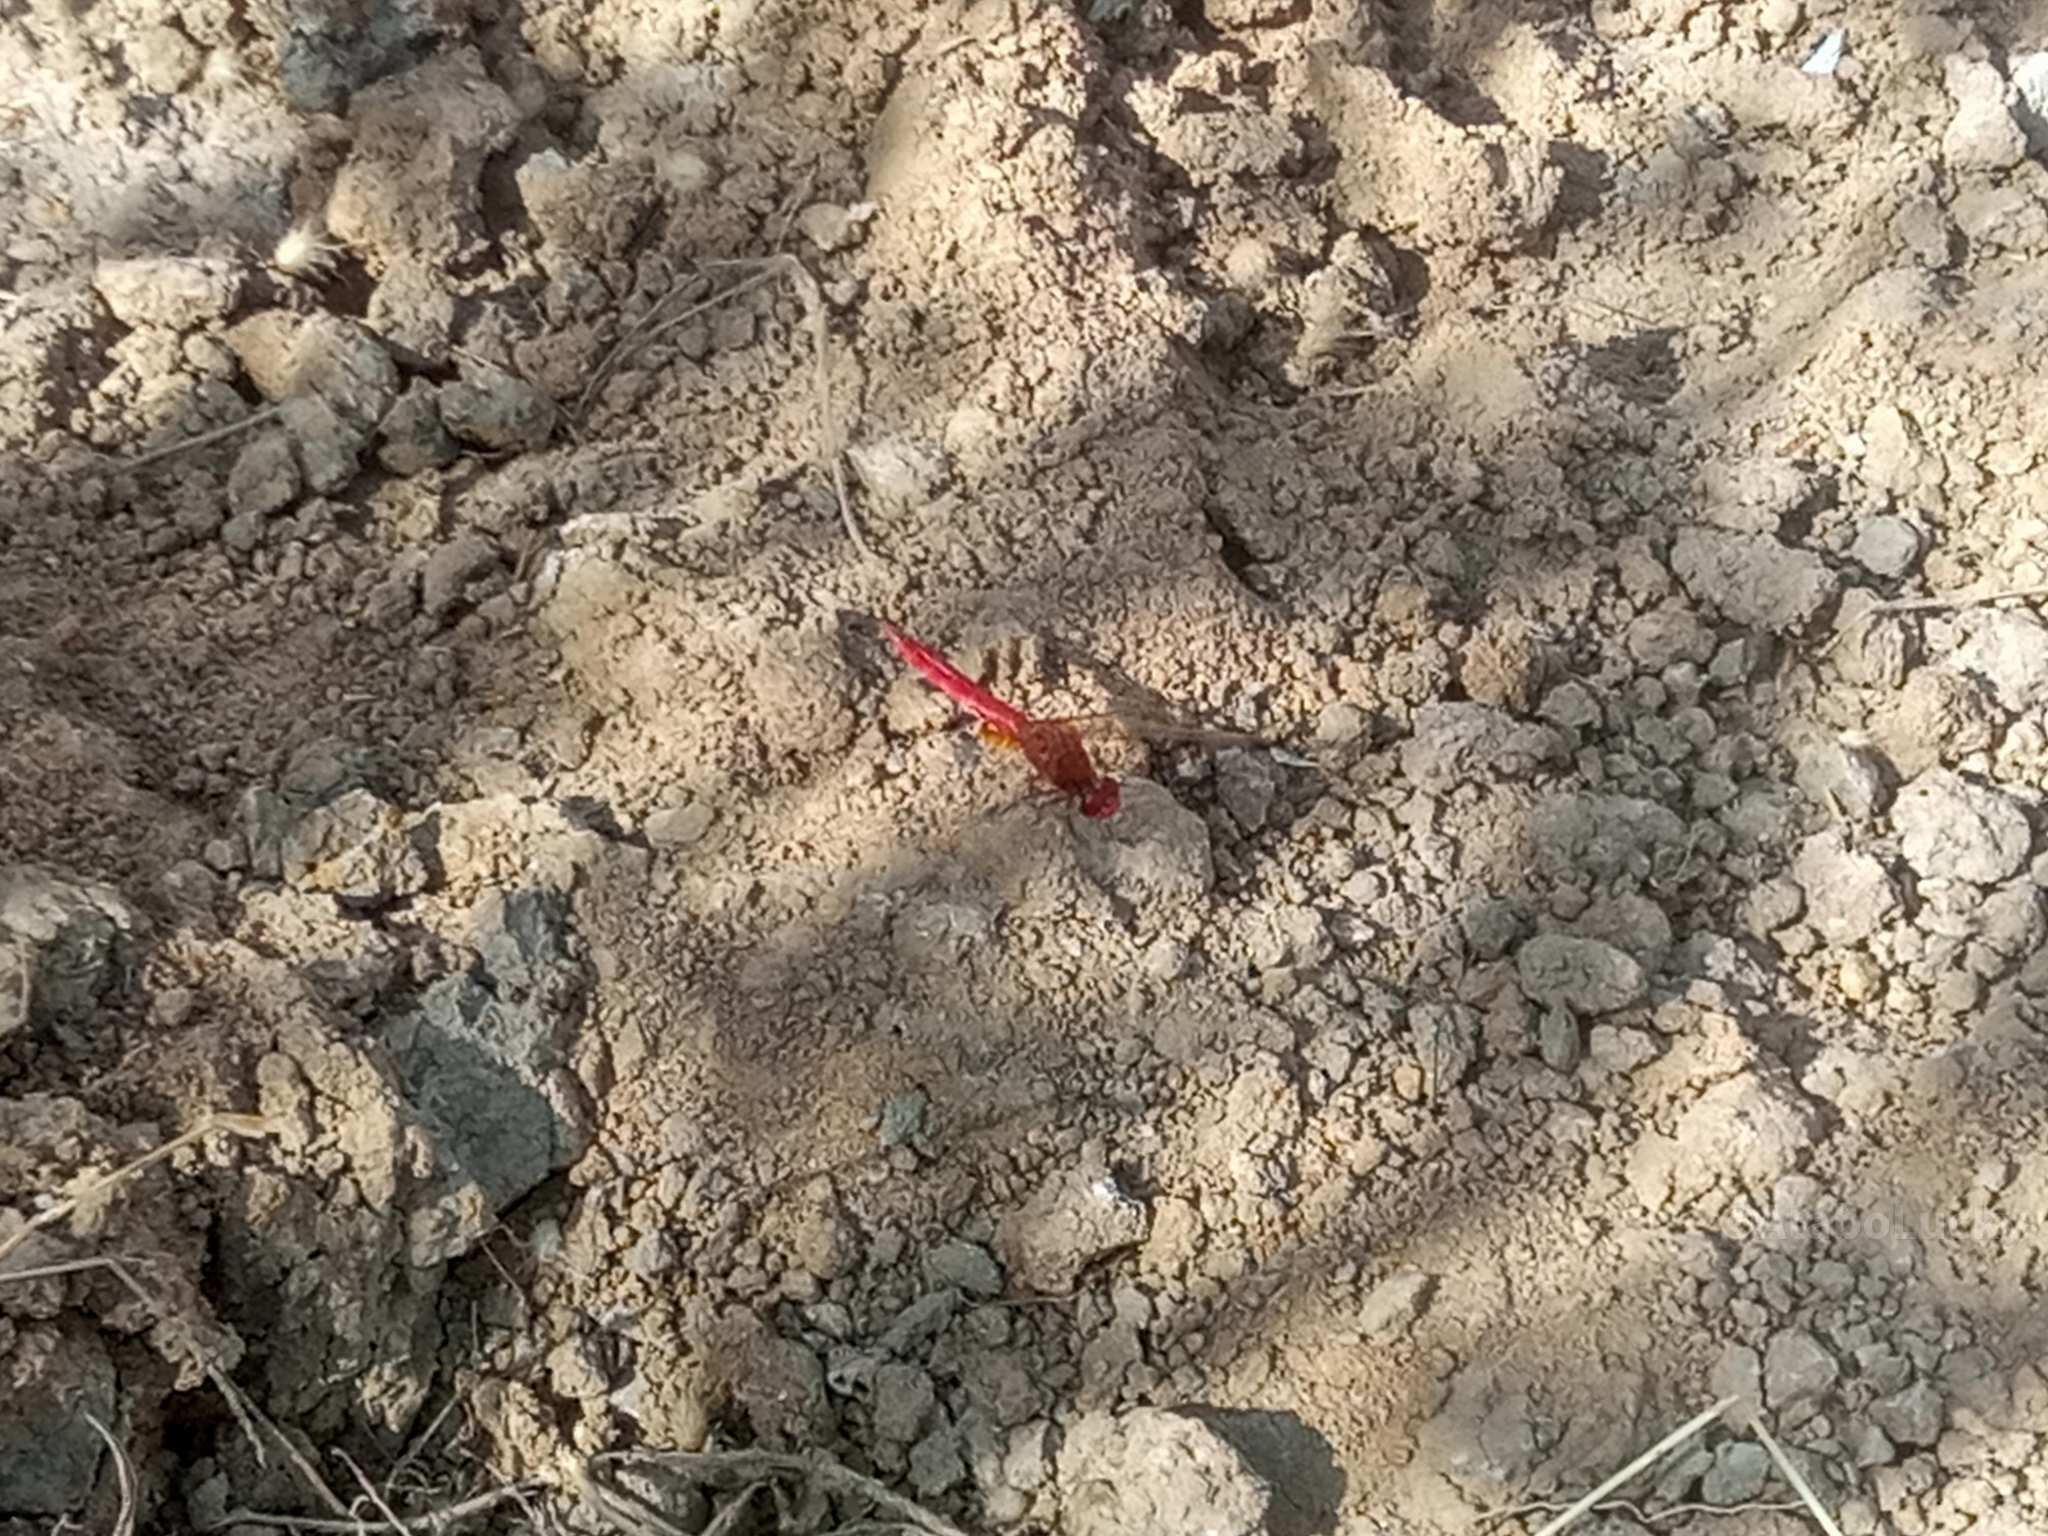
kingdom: Animalia
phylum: Arthropoda
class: Insecta
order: Odonata
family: Libellulidae
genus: Crocothemis
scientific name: Crocothemis erythraea
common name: Scarlet dragonfly
